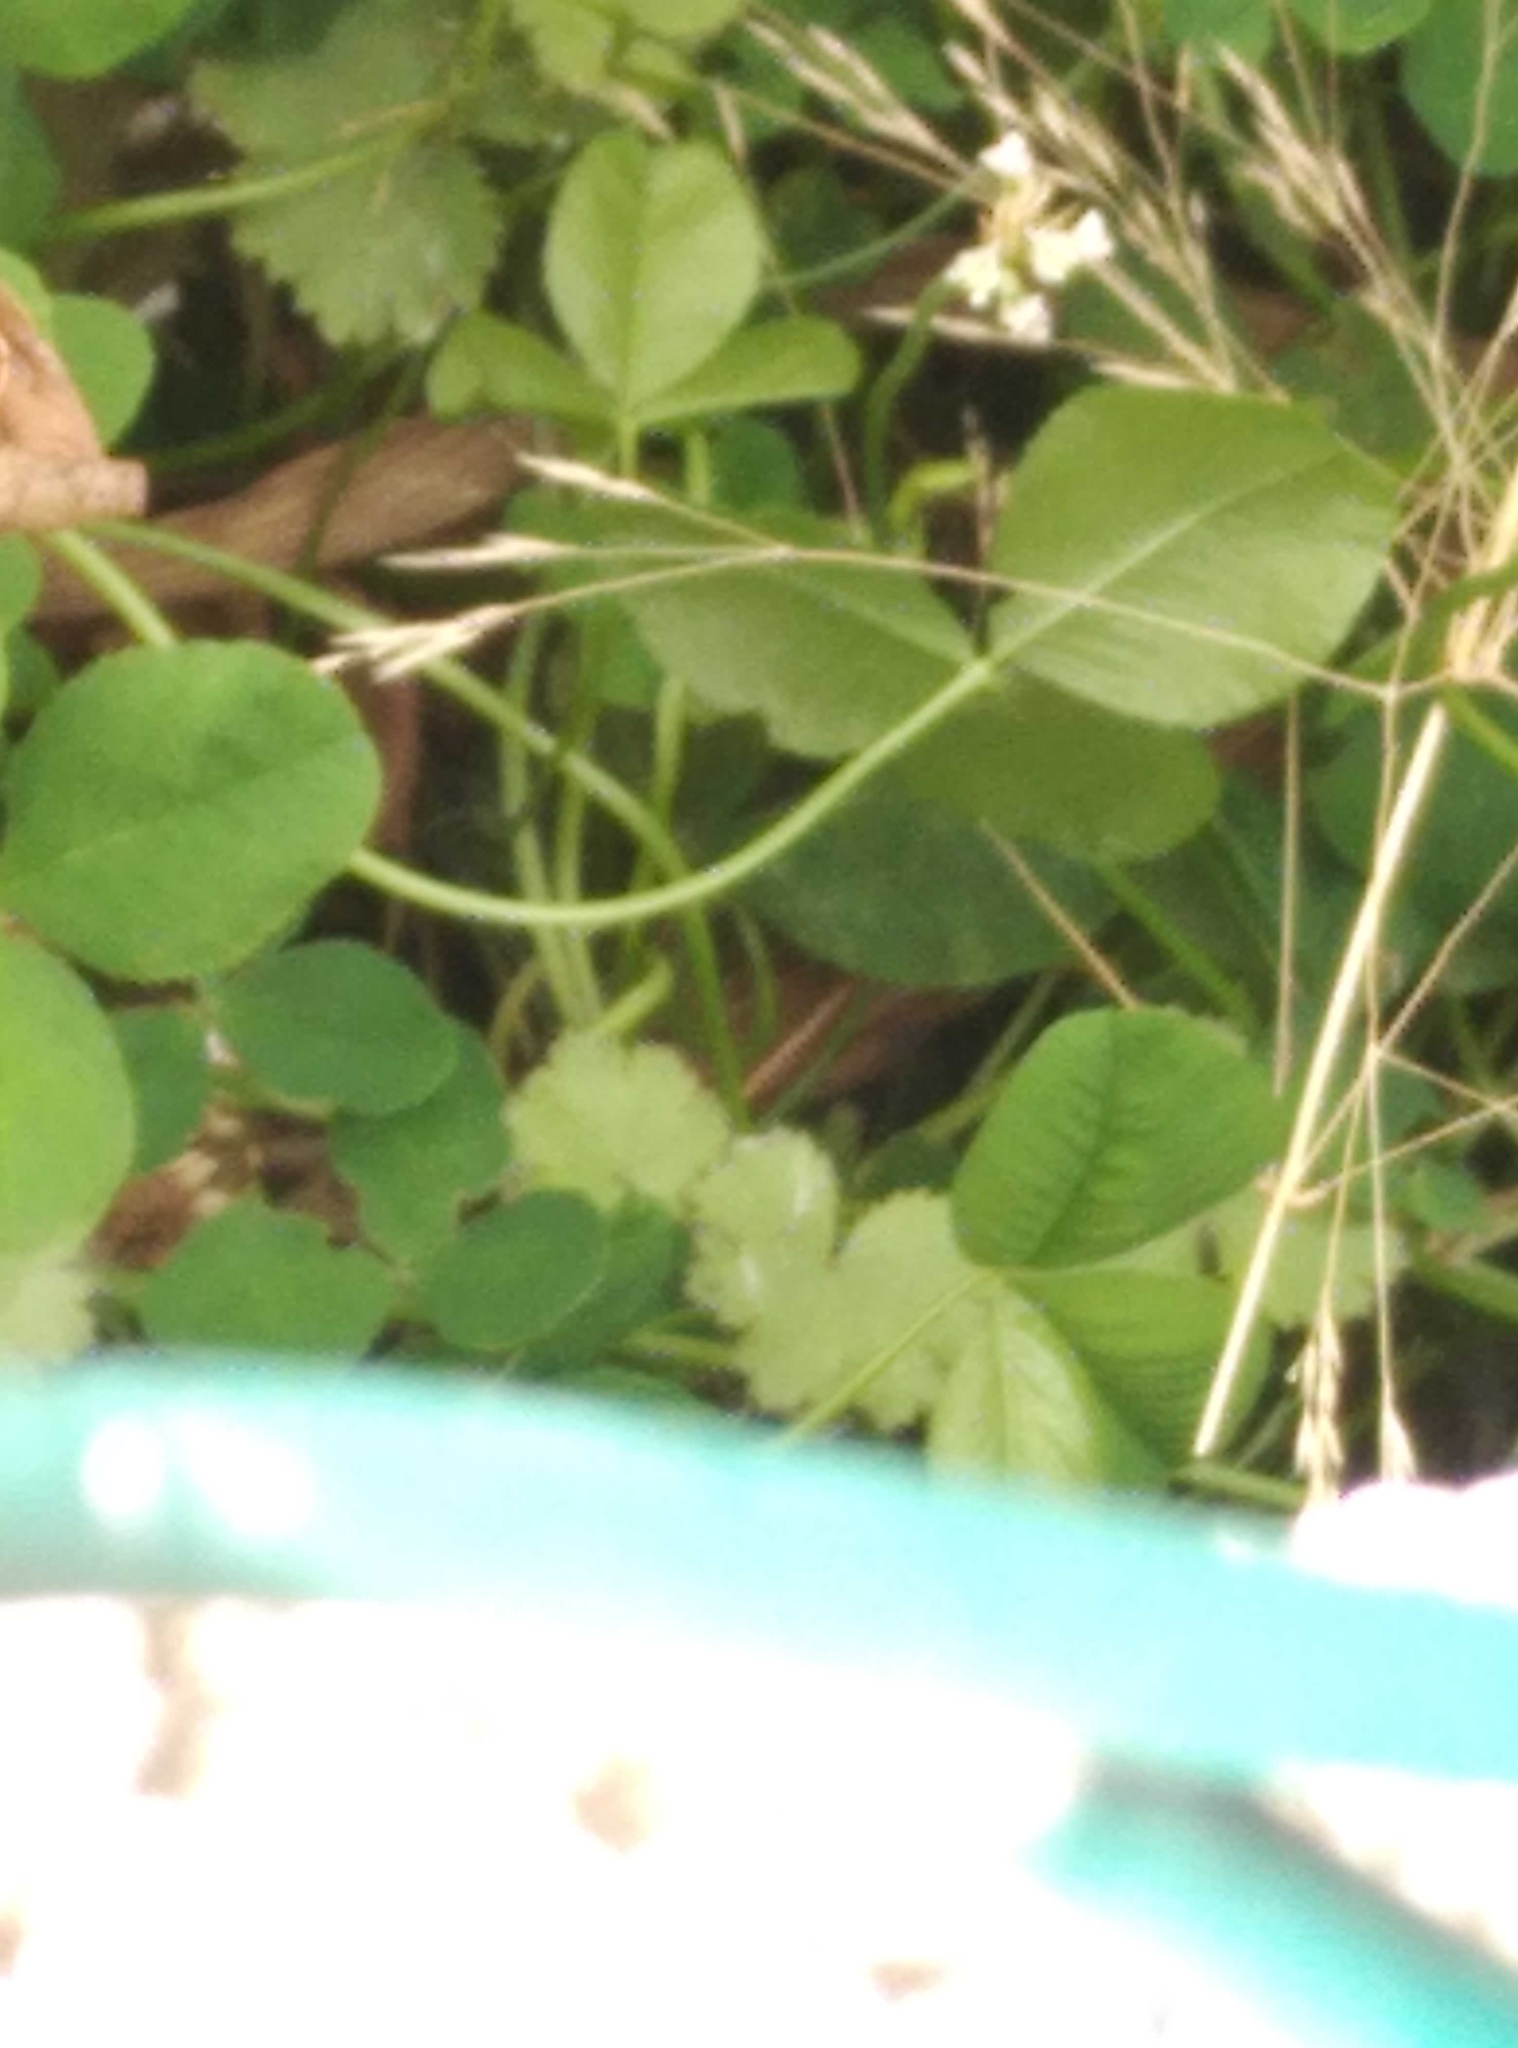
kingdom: Plantae
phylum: Tracheophyta
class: Magnoliopsida
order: Apiales
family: Araliaceae
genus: Hydrocotyle
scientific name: Hydrocotyle moschata
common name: Hairy pennywort
